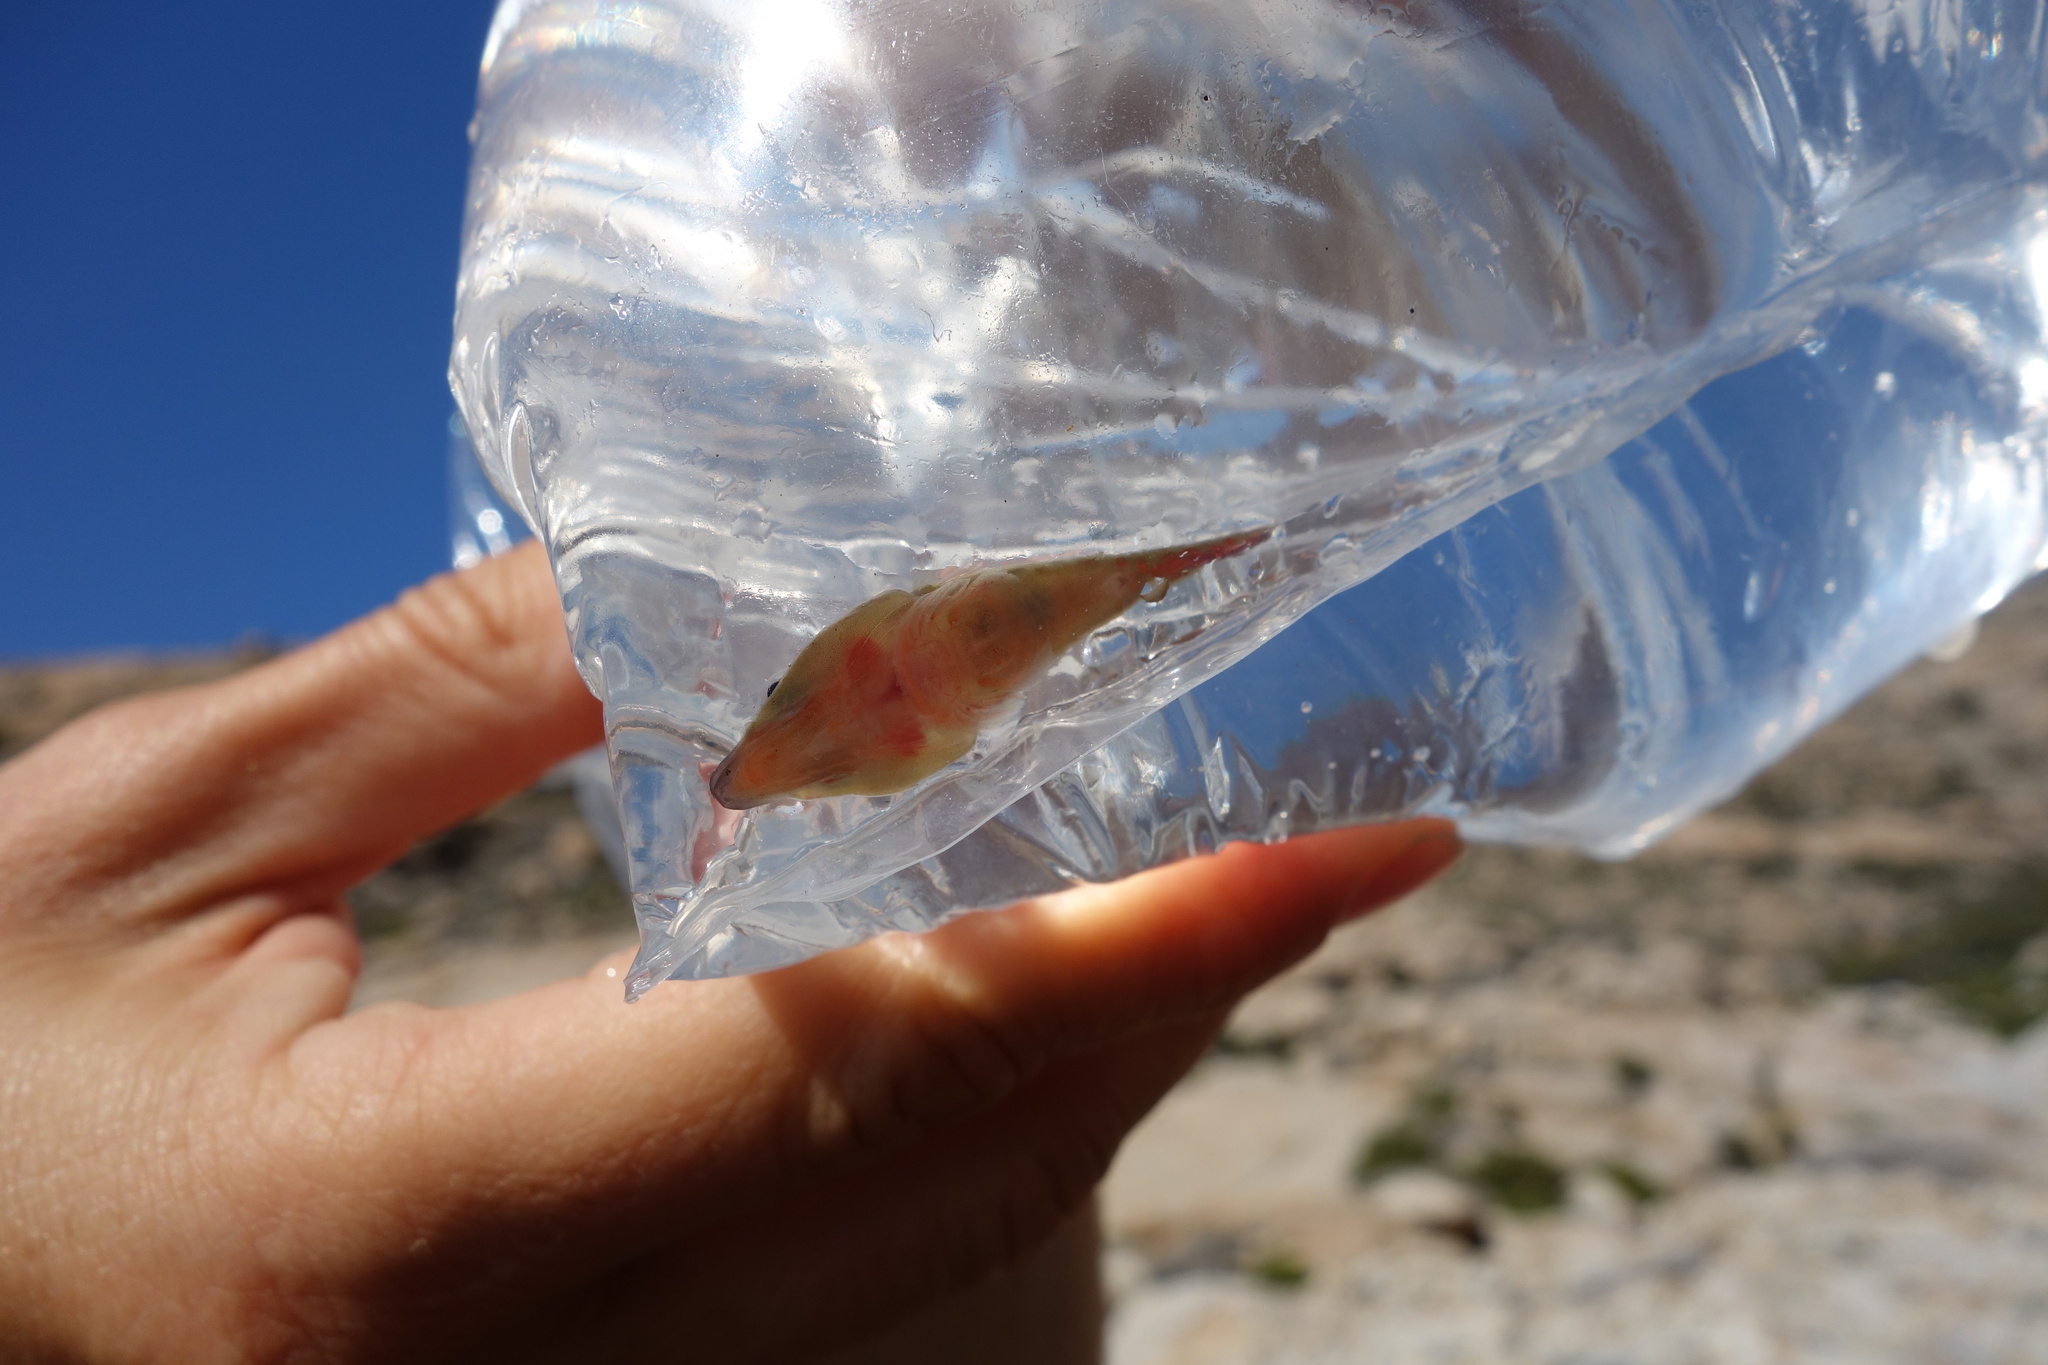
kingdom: Animalia
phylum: Chordata
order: Gobiesociformes
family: Gobiesocidae
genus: Lepadogaster
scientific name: Lepadogaster purpurea
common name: Cornish sucker
